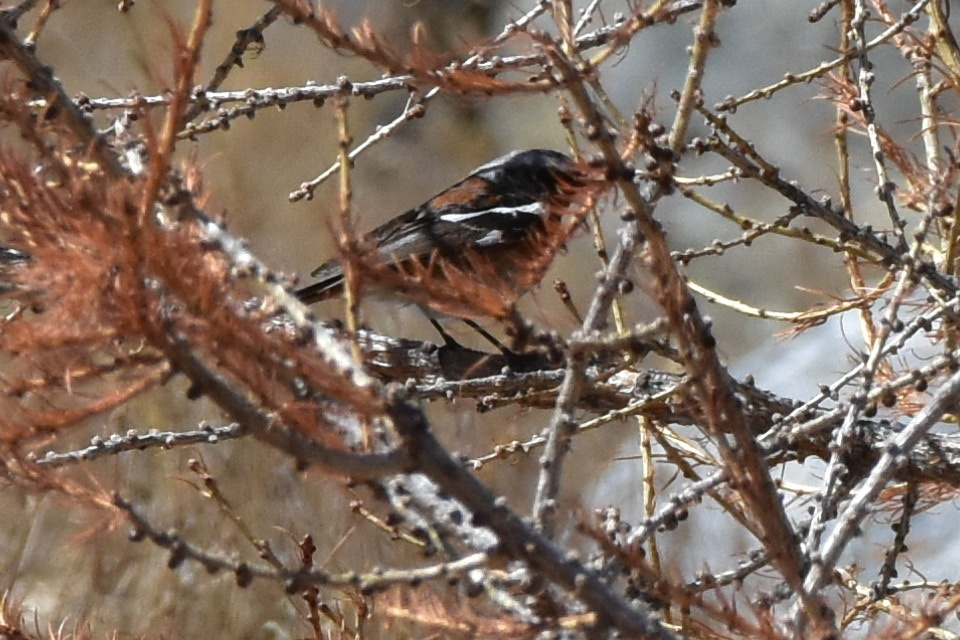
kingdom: Animalia
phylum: Chordata
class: Aves
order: Passeriformes
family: Muscicapidae
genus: Phoenicurus
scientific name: Phoenicurus erythronotus
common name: Eversmann's redstart
